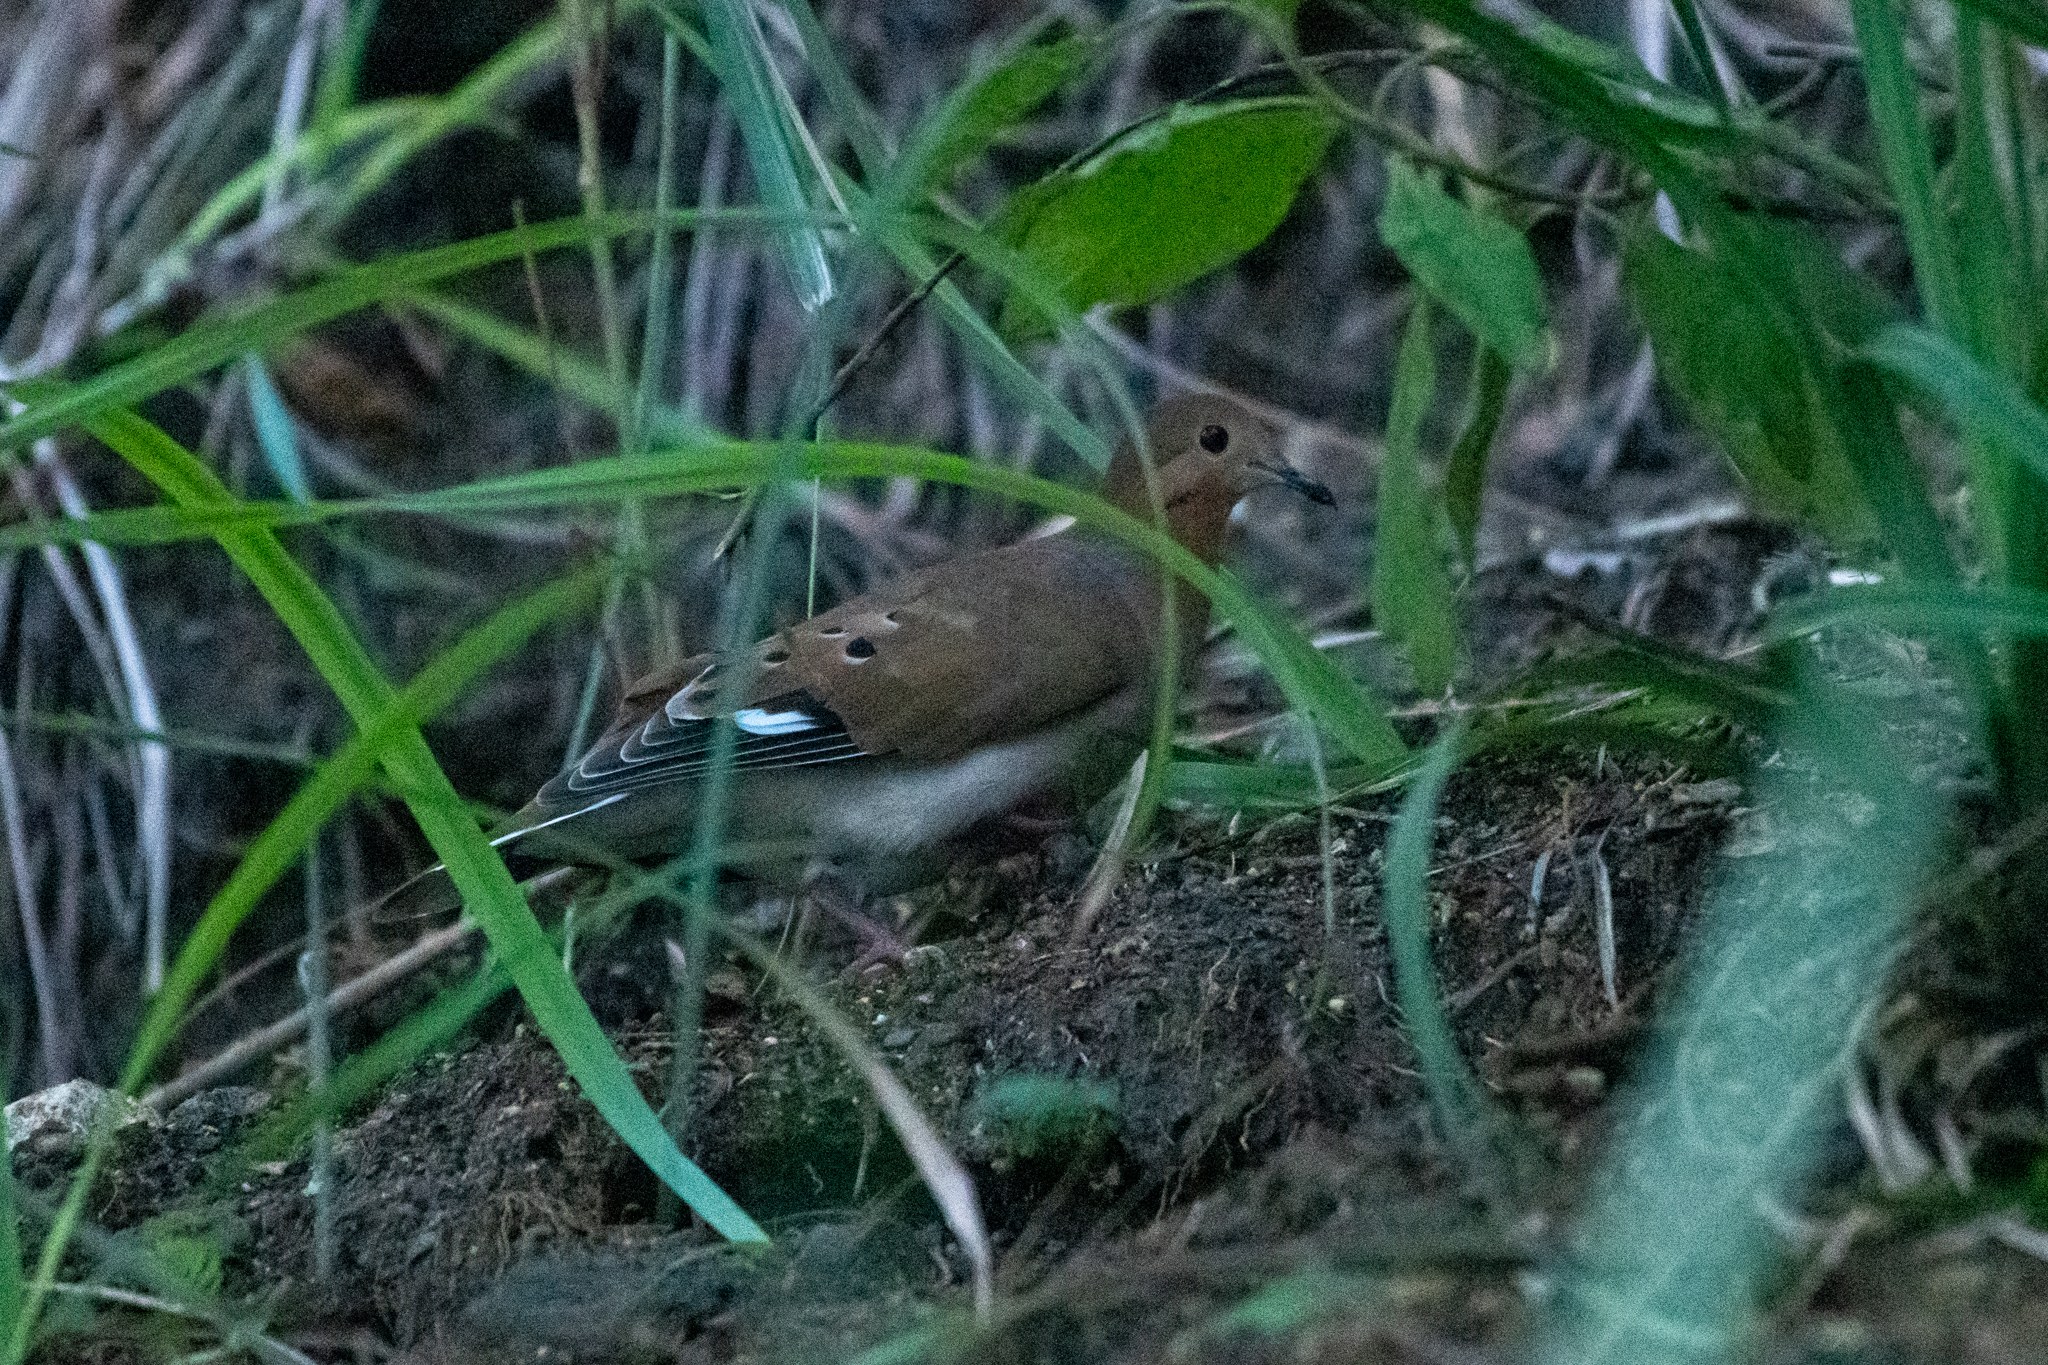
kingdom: Animalia
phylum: Chordata
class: Aves
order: Columbiformes
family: Columbidae
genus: Zenaida
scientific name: Zenaida aurita
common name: Zenaida dove
